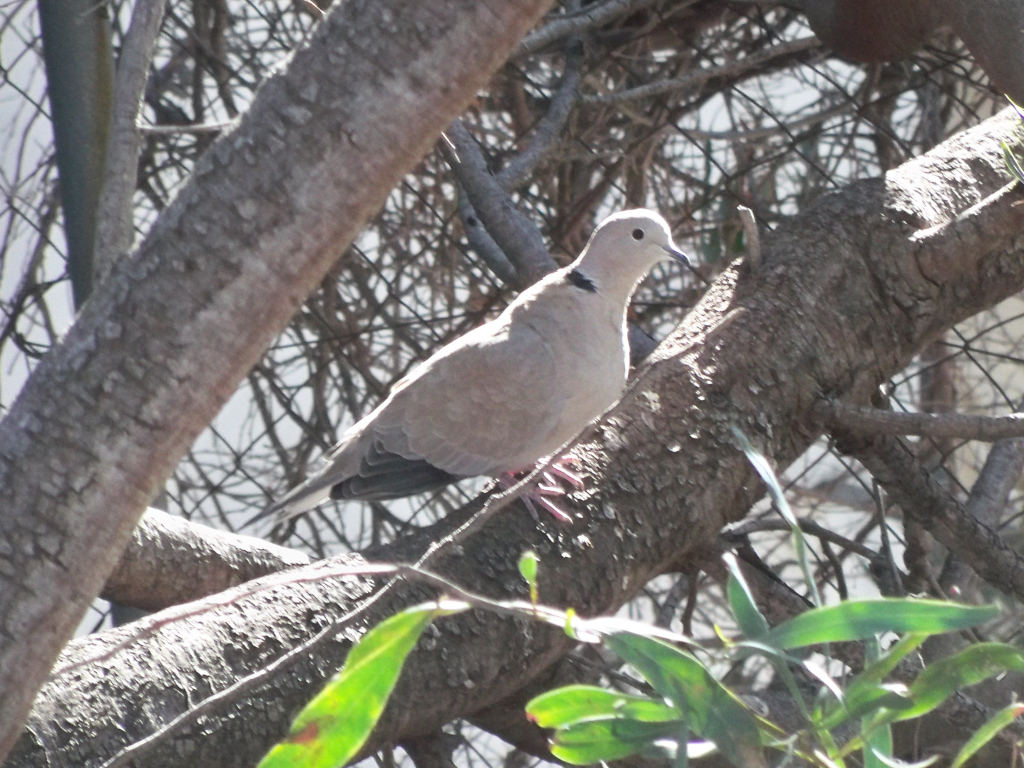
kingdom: Animalia
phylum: Chordata
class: Aves
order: Columbiformes
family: Columbidae
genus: Streptopelia
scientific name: Streptopelia decaocto
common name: Eurasian collared dove
